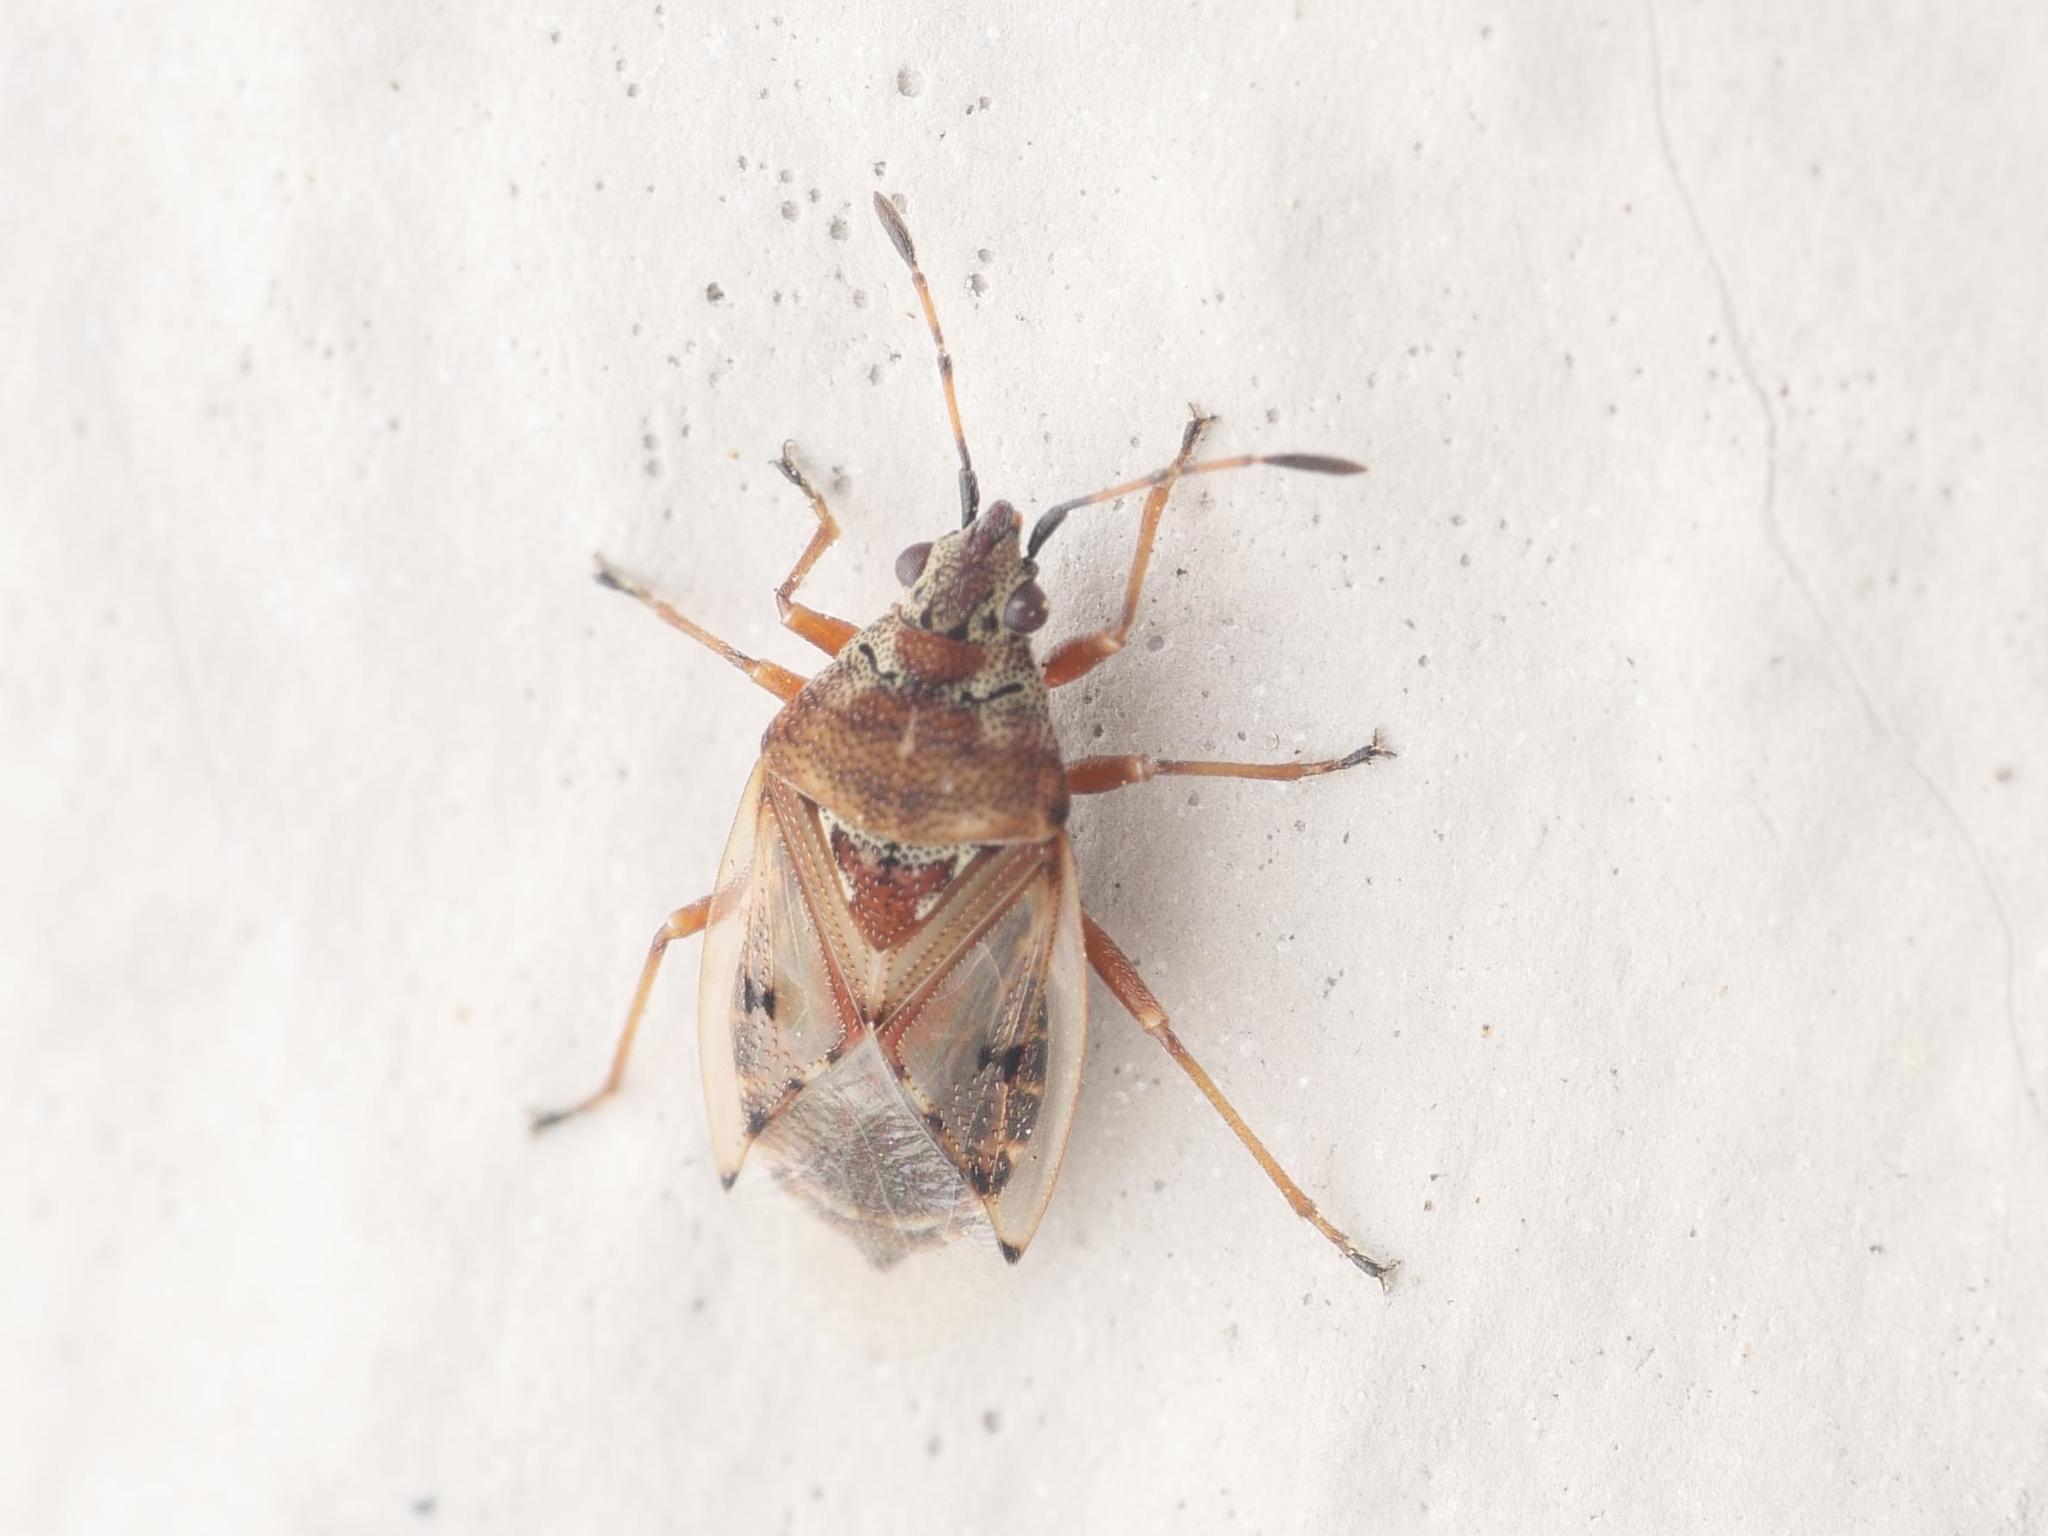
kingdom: Animalia
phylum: Arthropoda
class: Insecta
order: Hemiptera
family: Lygaeidae
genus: Kleidocerys
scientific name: Kleidocerys resedae
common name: Birch catkin bug
